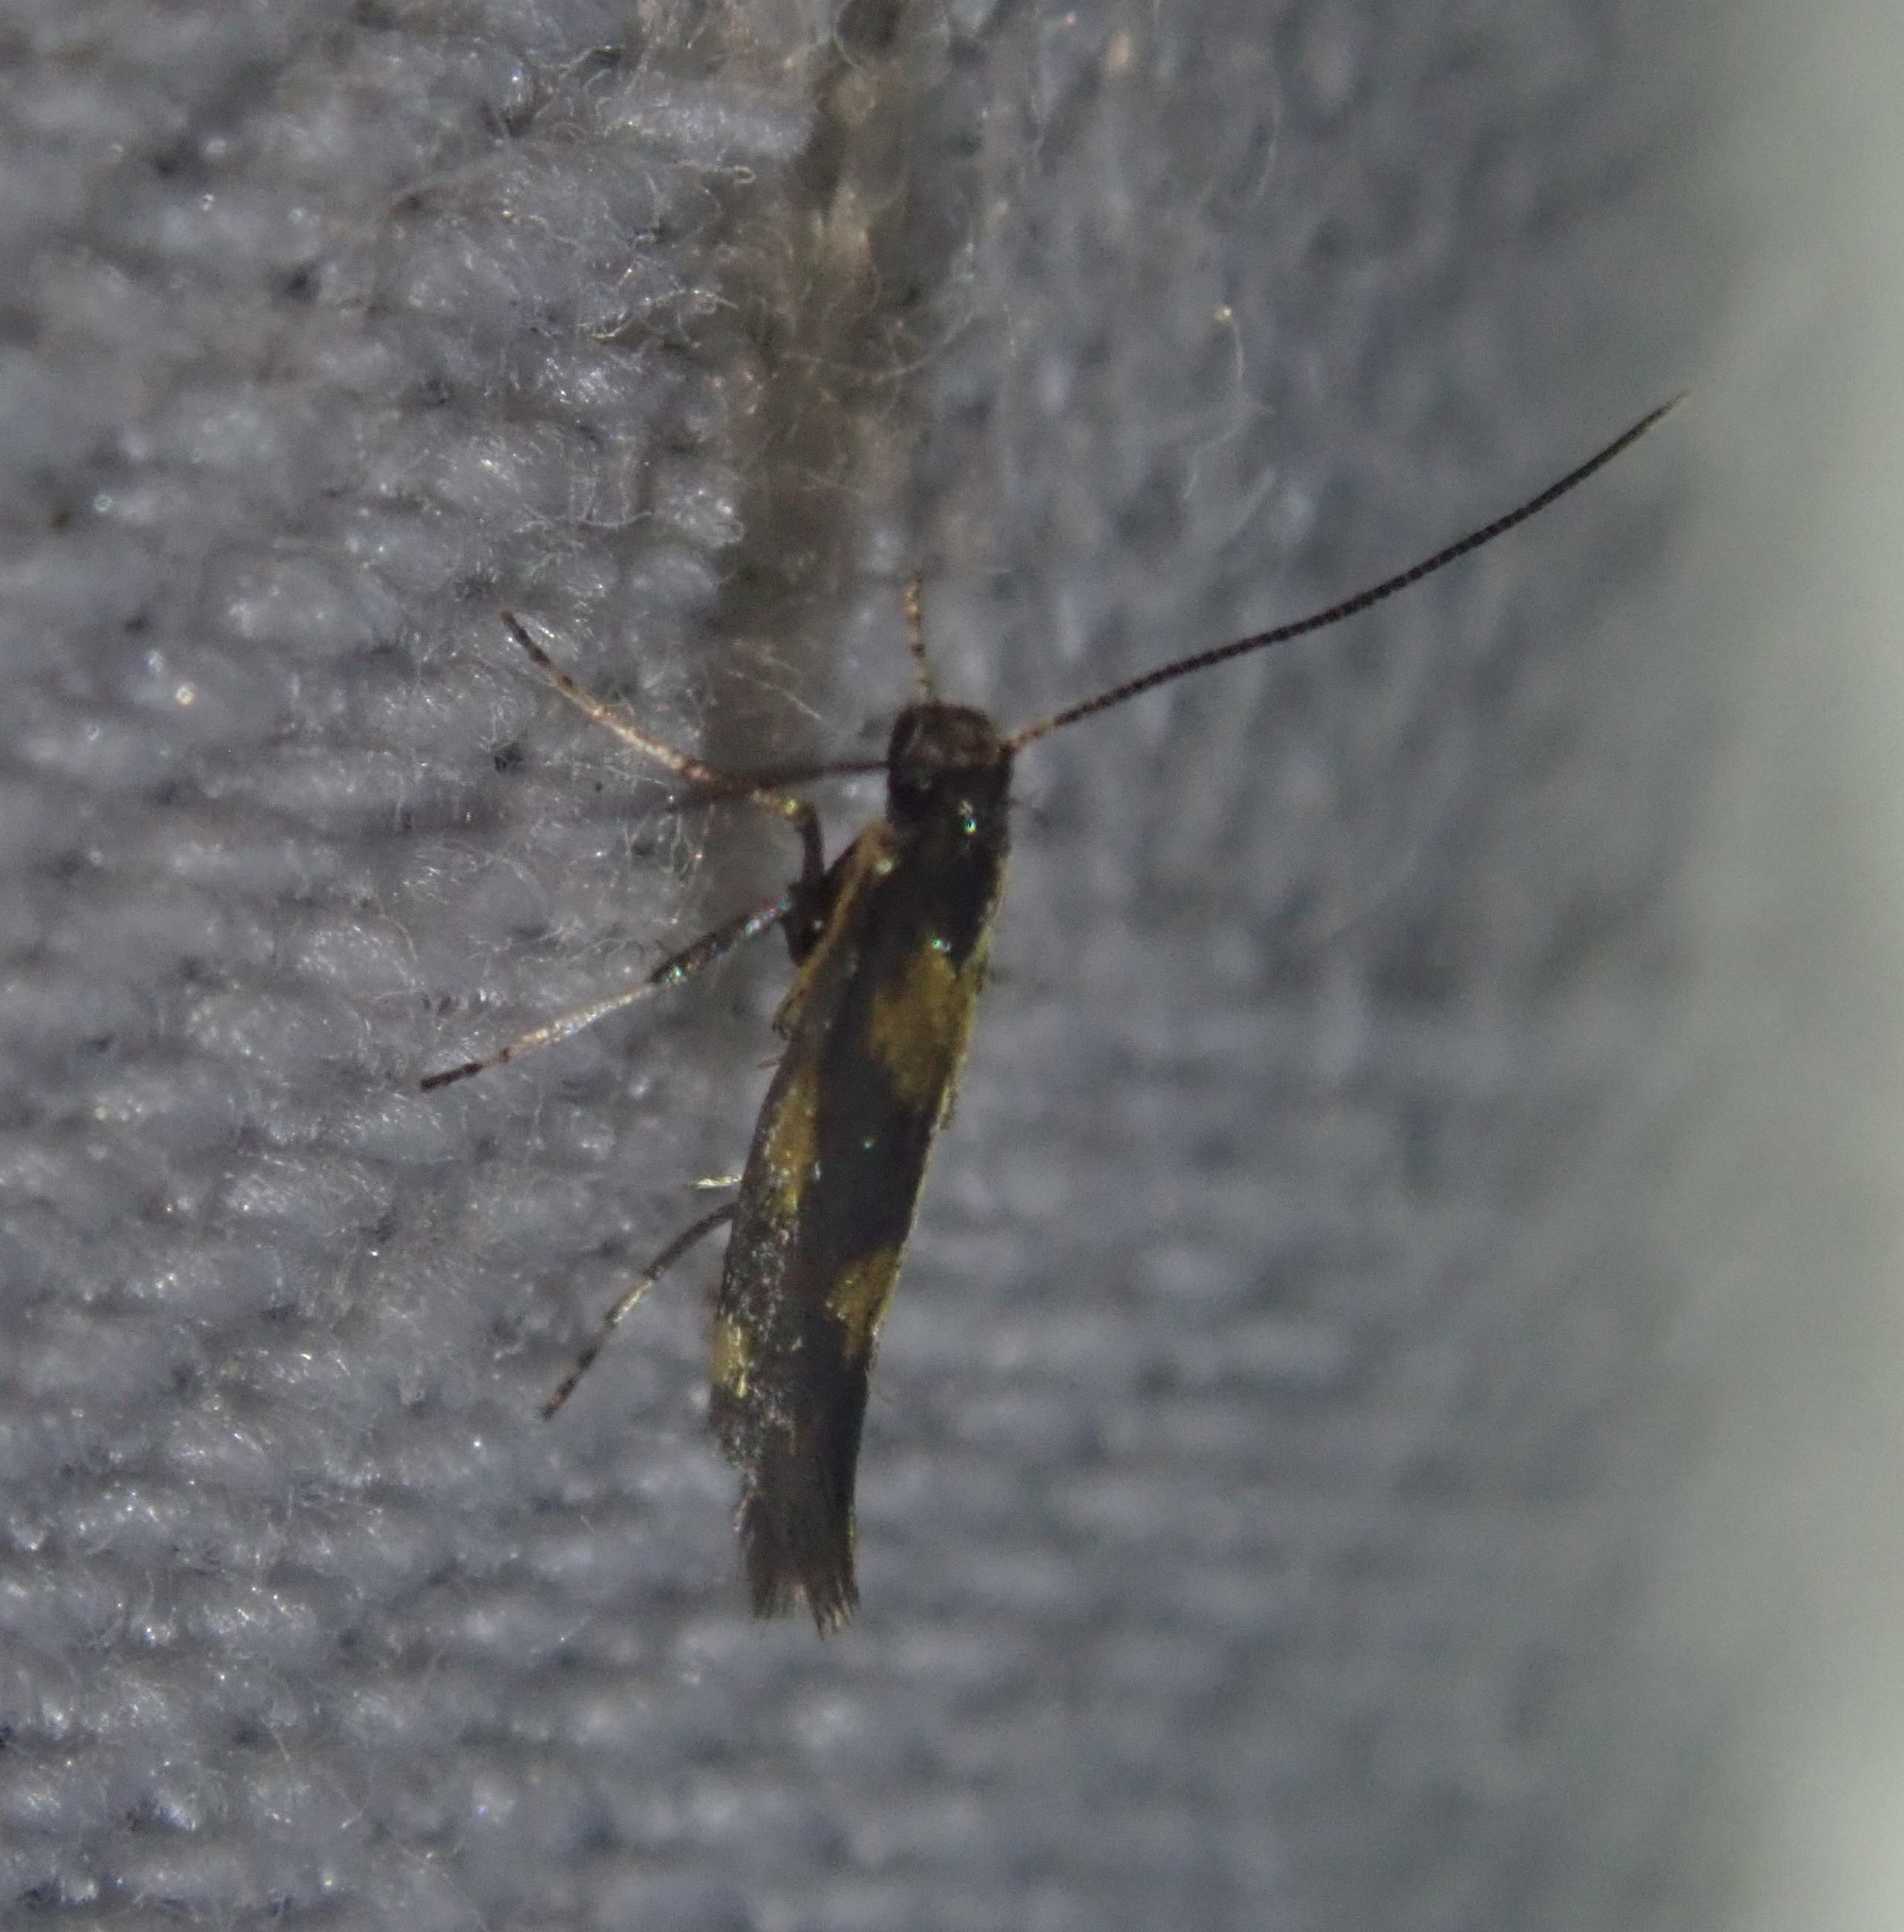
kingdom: Animalia
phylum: Arthropoda
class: Insecta
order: Lepidoptera
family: Gracillariidae
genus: Euspilapteryx
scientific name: Euspilapteryx auroguttella
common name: Gold-dot slender
